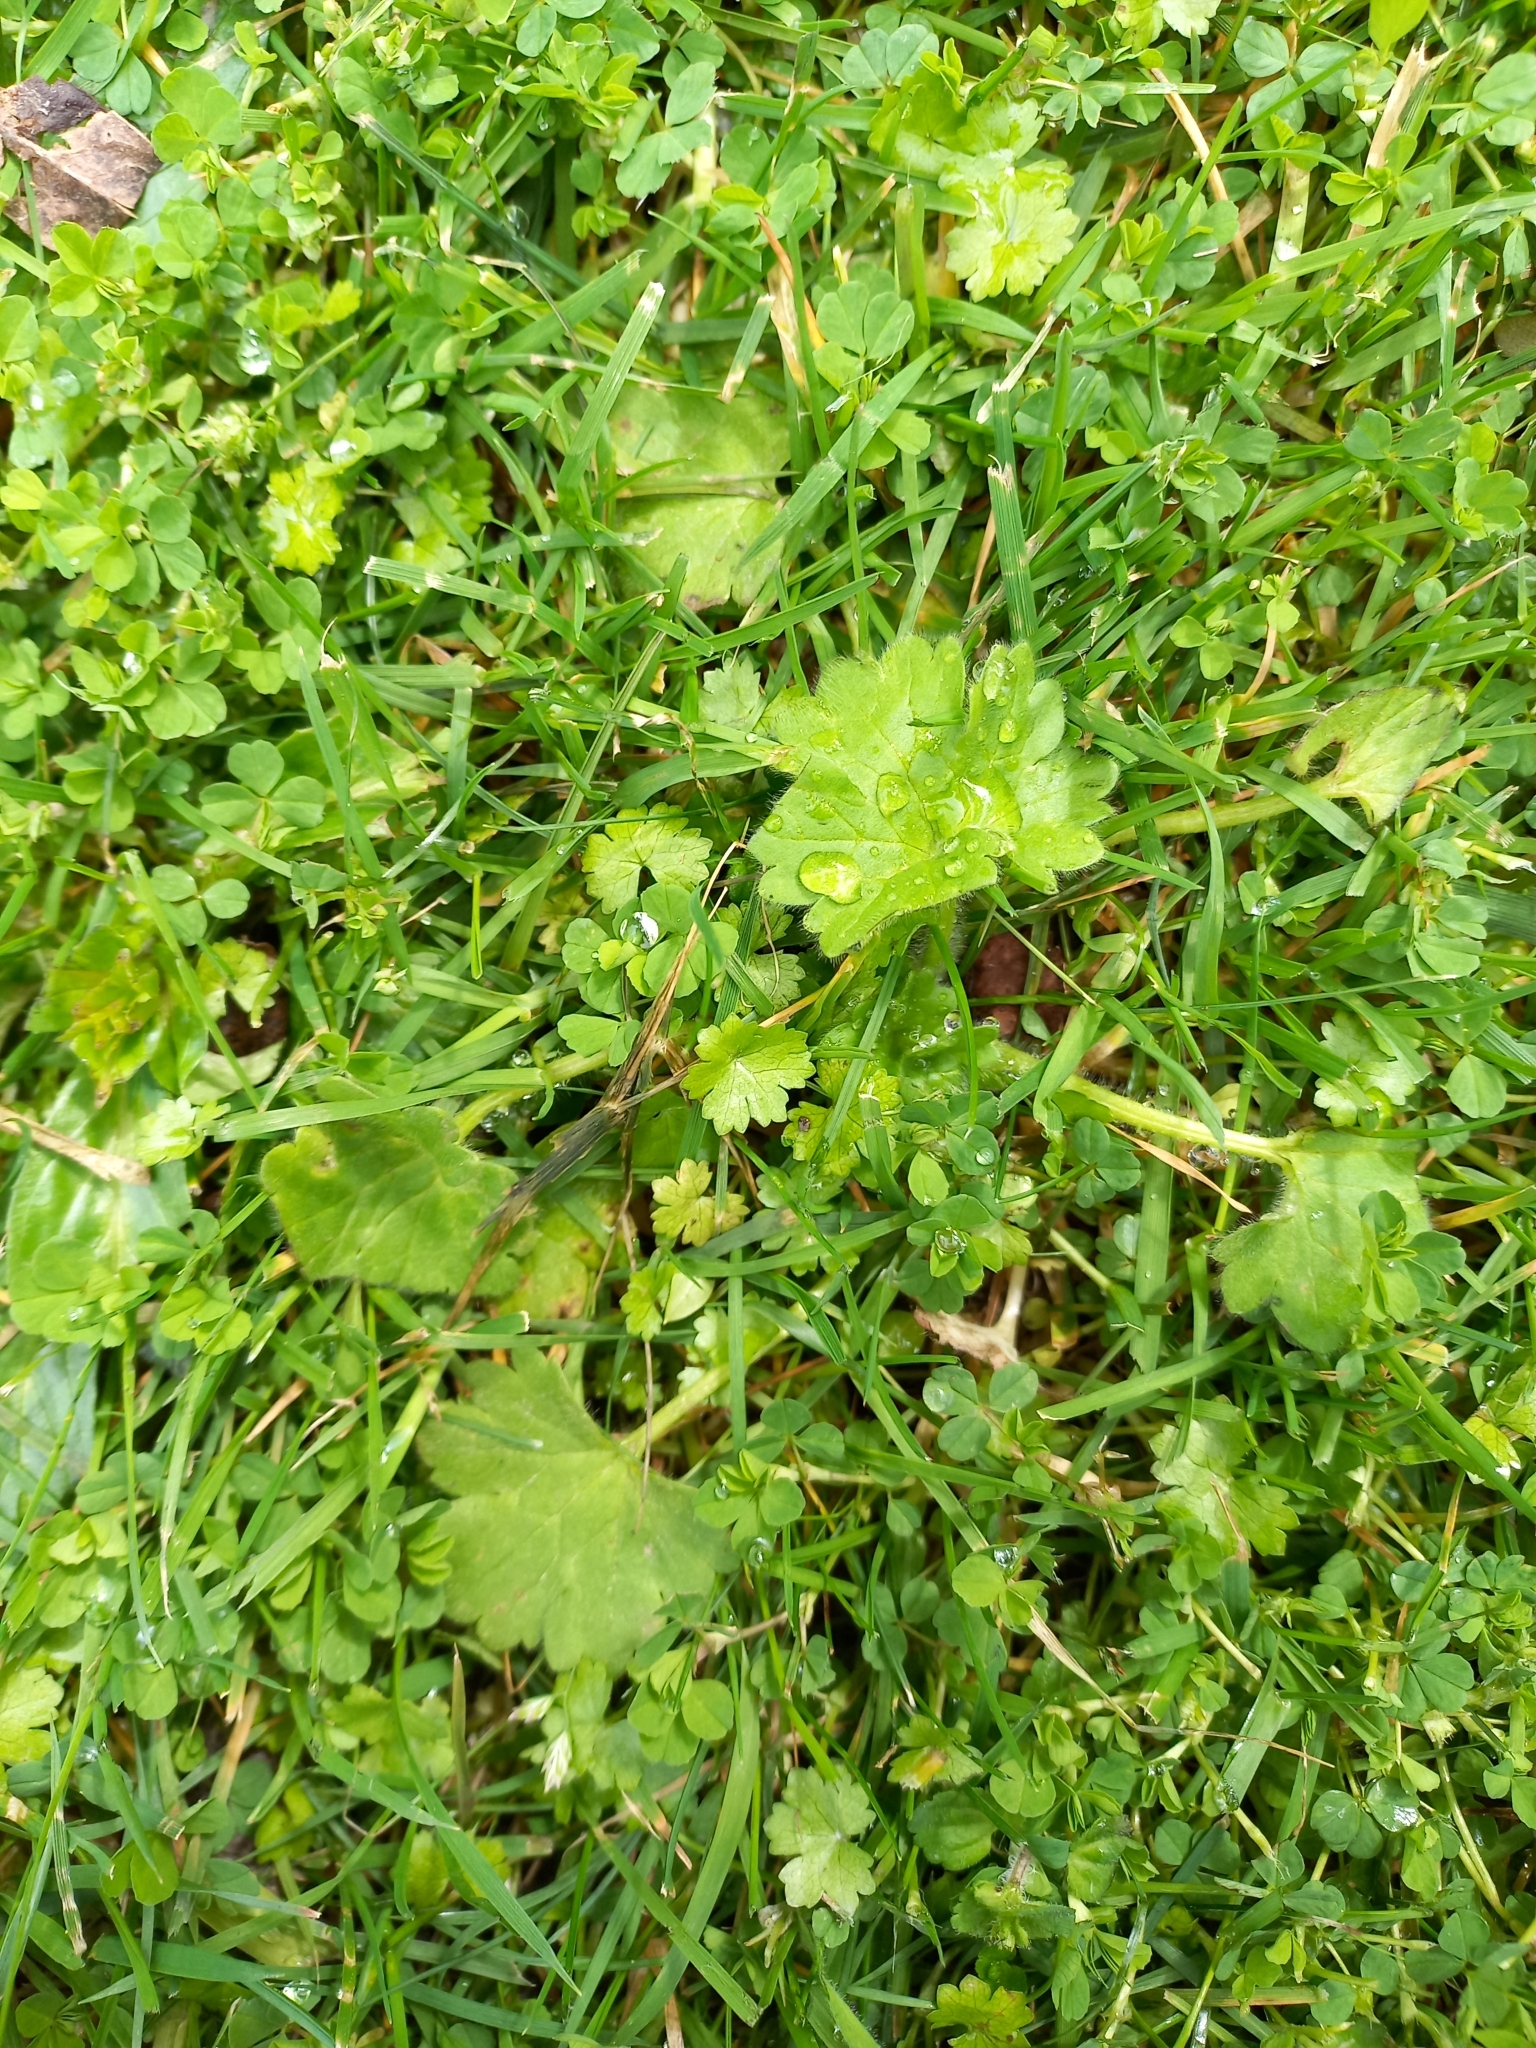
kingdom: Plantae
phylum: Tracheophyta
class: Magnoliopsida
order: Malvales
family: Malvaceae
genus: Modiola
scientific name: Modiola caroliniana
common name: Carolina bristlemallow
